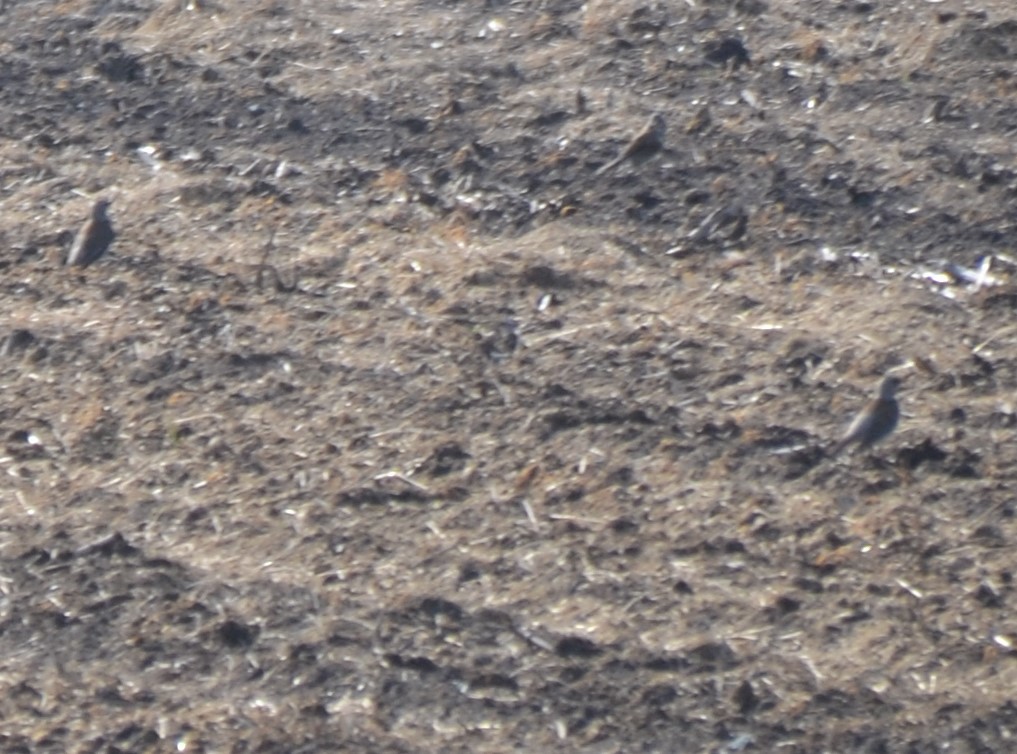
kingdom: Animalia
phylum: Chordata
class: Aves
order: Passeriformes
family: Turdidae
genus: Turdus
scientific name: Turdus pilaris
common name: Fieldfare
